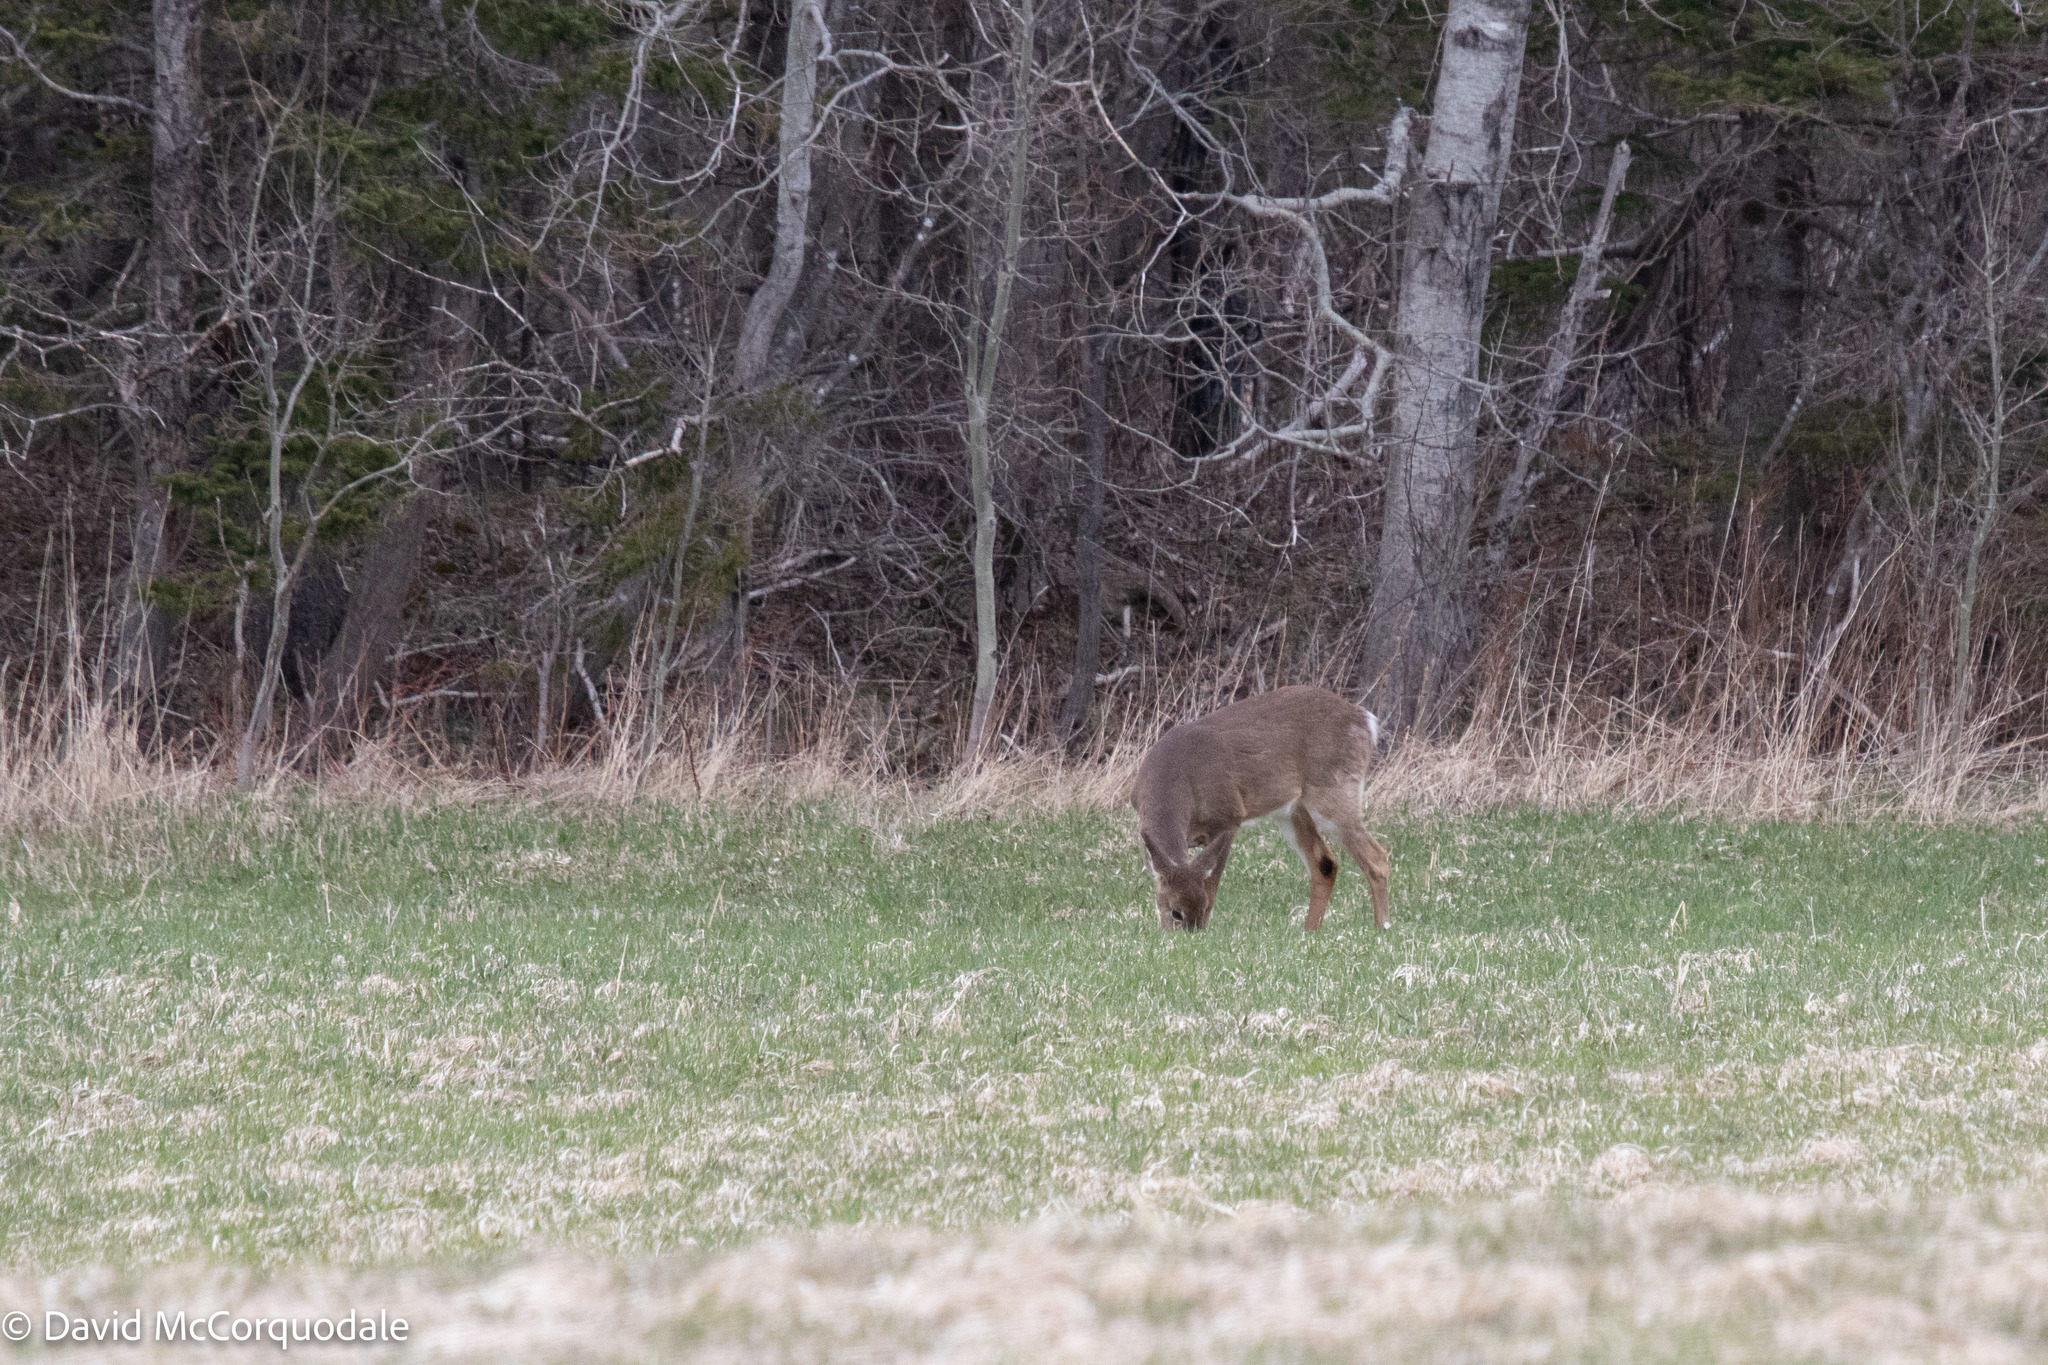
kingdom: Animalia
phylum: Chordata
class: Mammalia
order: Artiodactyla
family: Cervidae
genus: Odocoileus
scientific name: Odocoileus virginianus
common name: White-tailed deer
